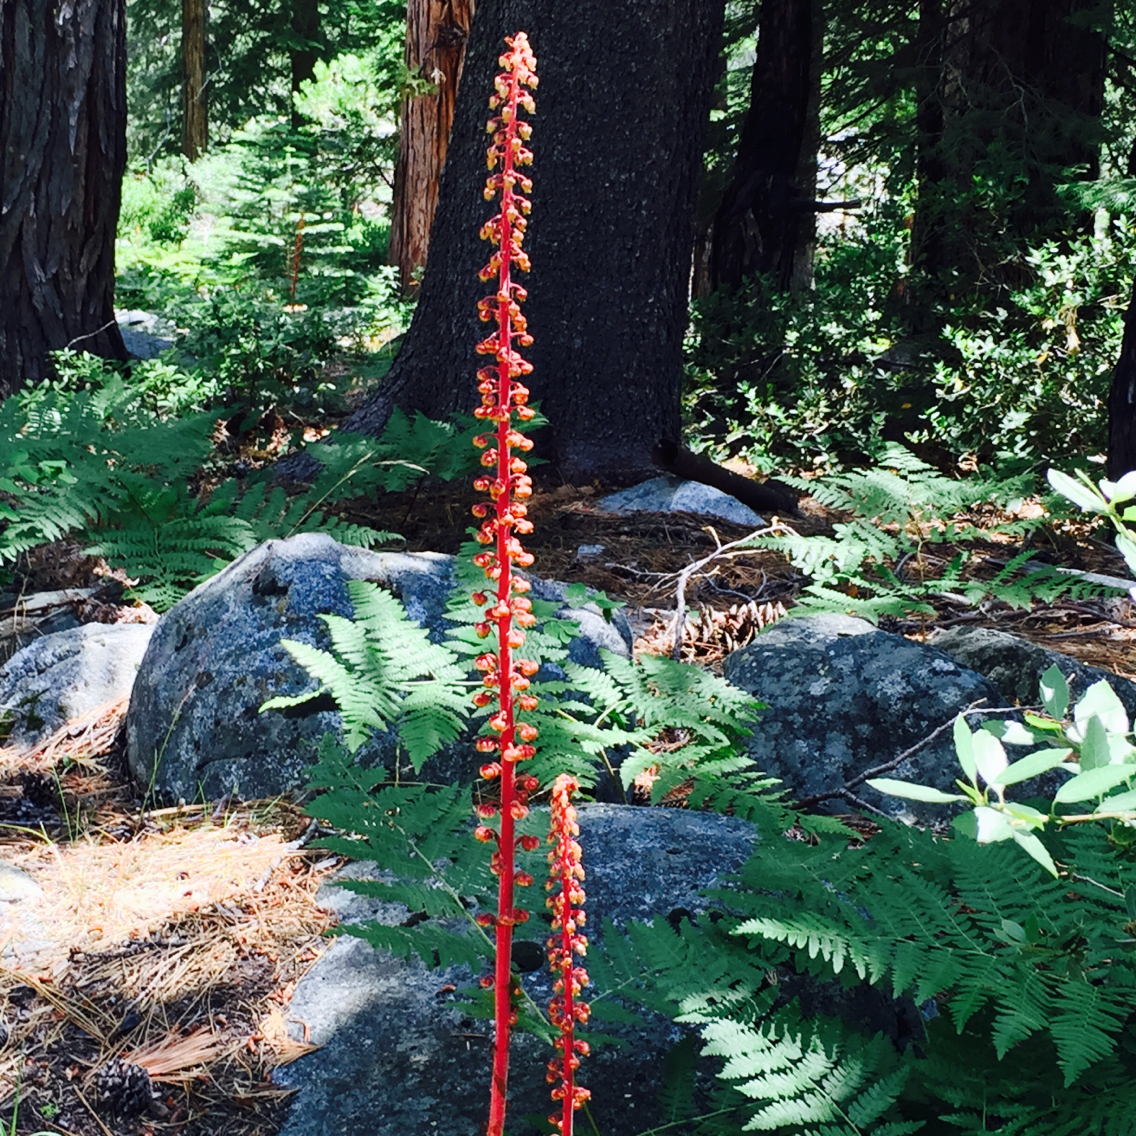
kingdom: Plantae
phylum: Tracheophyta
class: Magnoliopsida
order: Ericales
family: Ericaceae
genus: Pterospora
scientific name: Pterospora andromedea
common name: Giant bird's-nest
